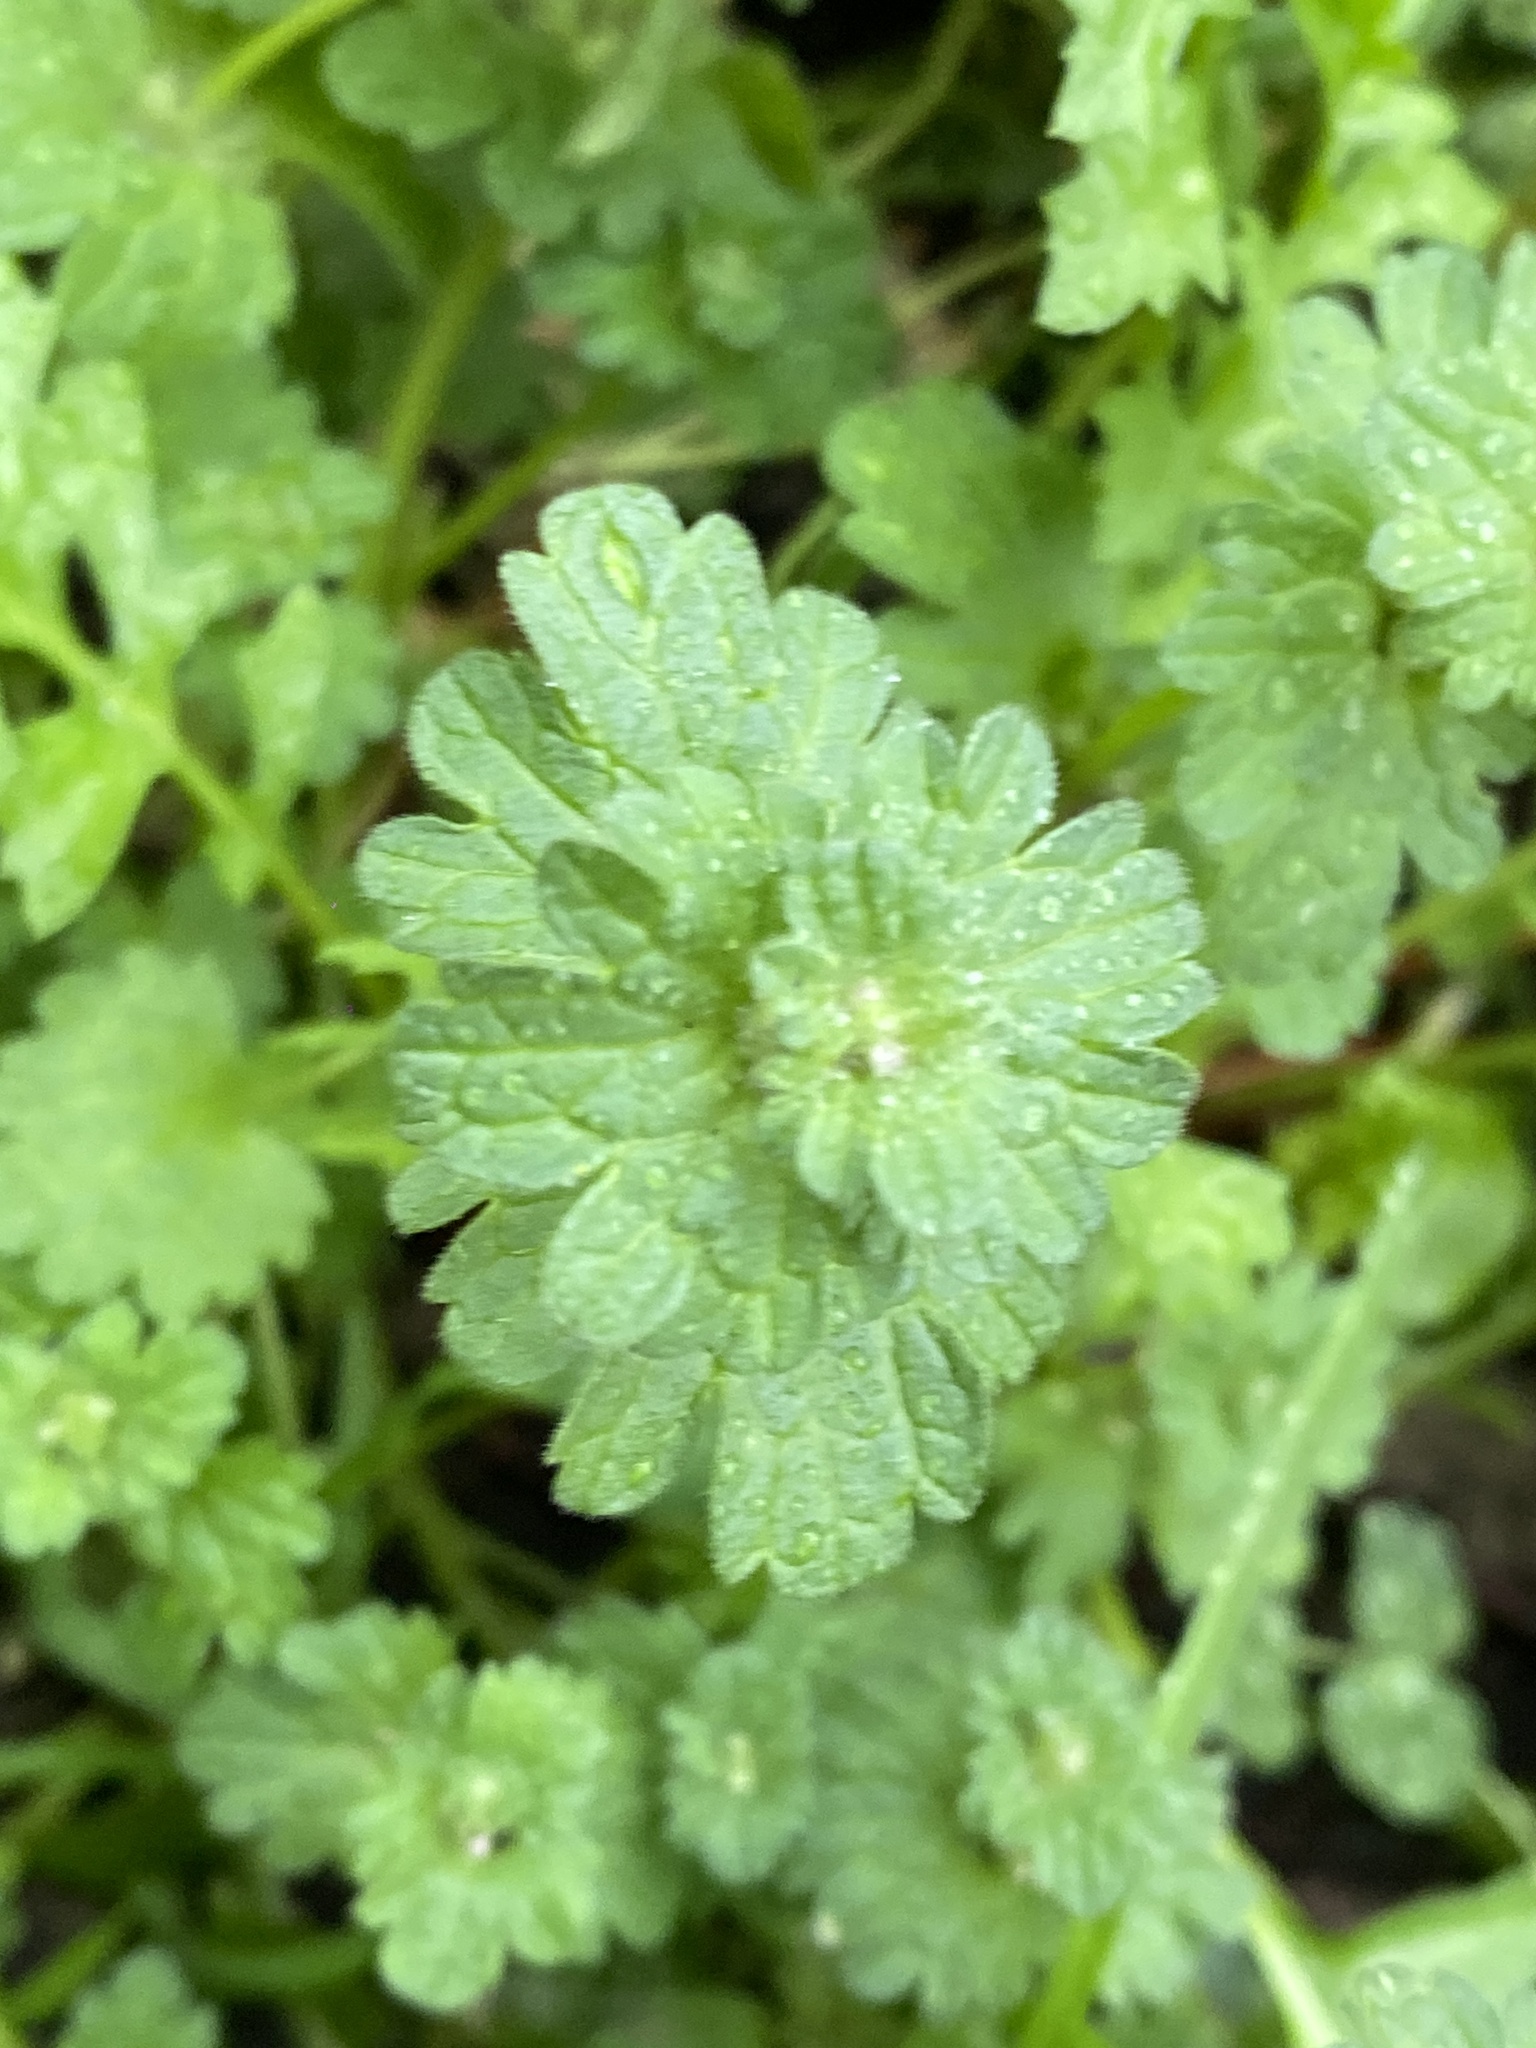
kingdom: Plantae
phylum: Tracheophyta
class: Magnoliopsida
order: Lamiales
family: Lamiaceae
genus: Lamium
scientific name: Lamium amplexicaule
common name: Henbit dead-nettle
